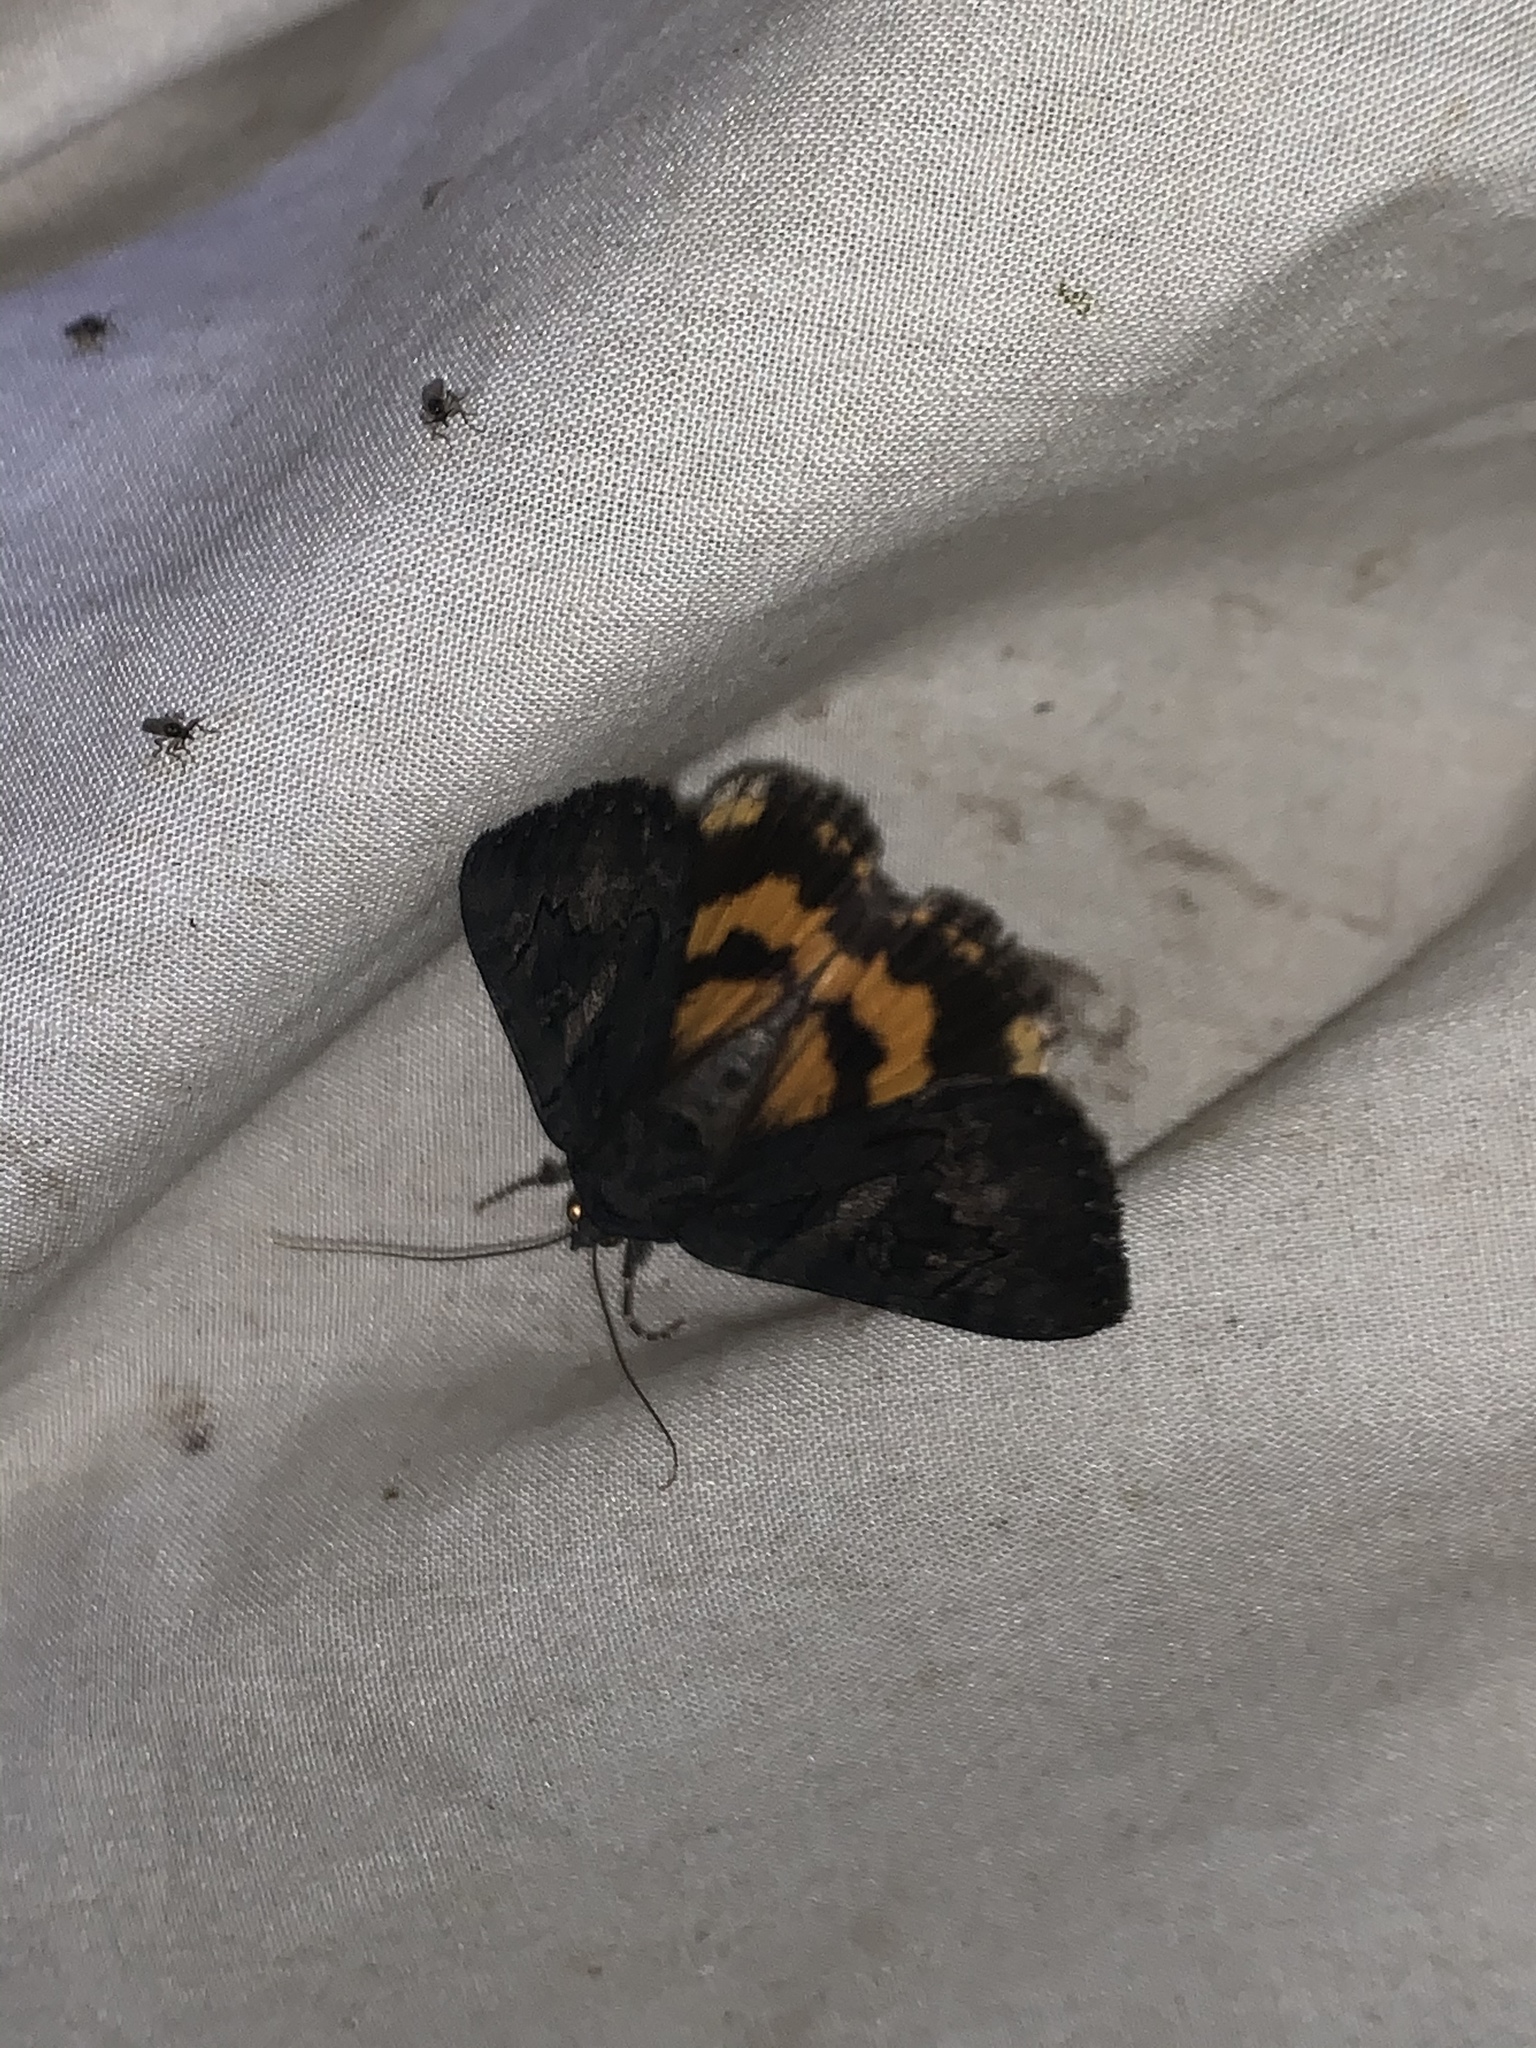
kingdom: Animalia
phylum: Arthropoda
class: Insecta
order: Lepidoptera
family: Erebidae
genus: Catocala
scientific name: Catocala antinympha
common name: Sweetfern underwing
